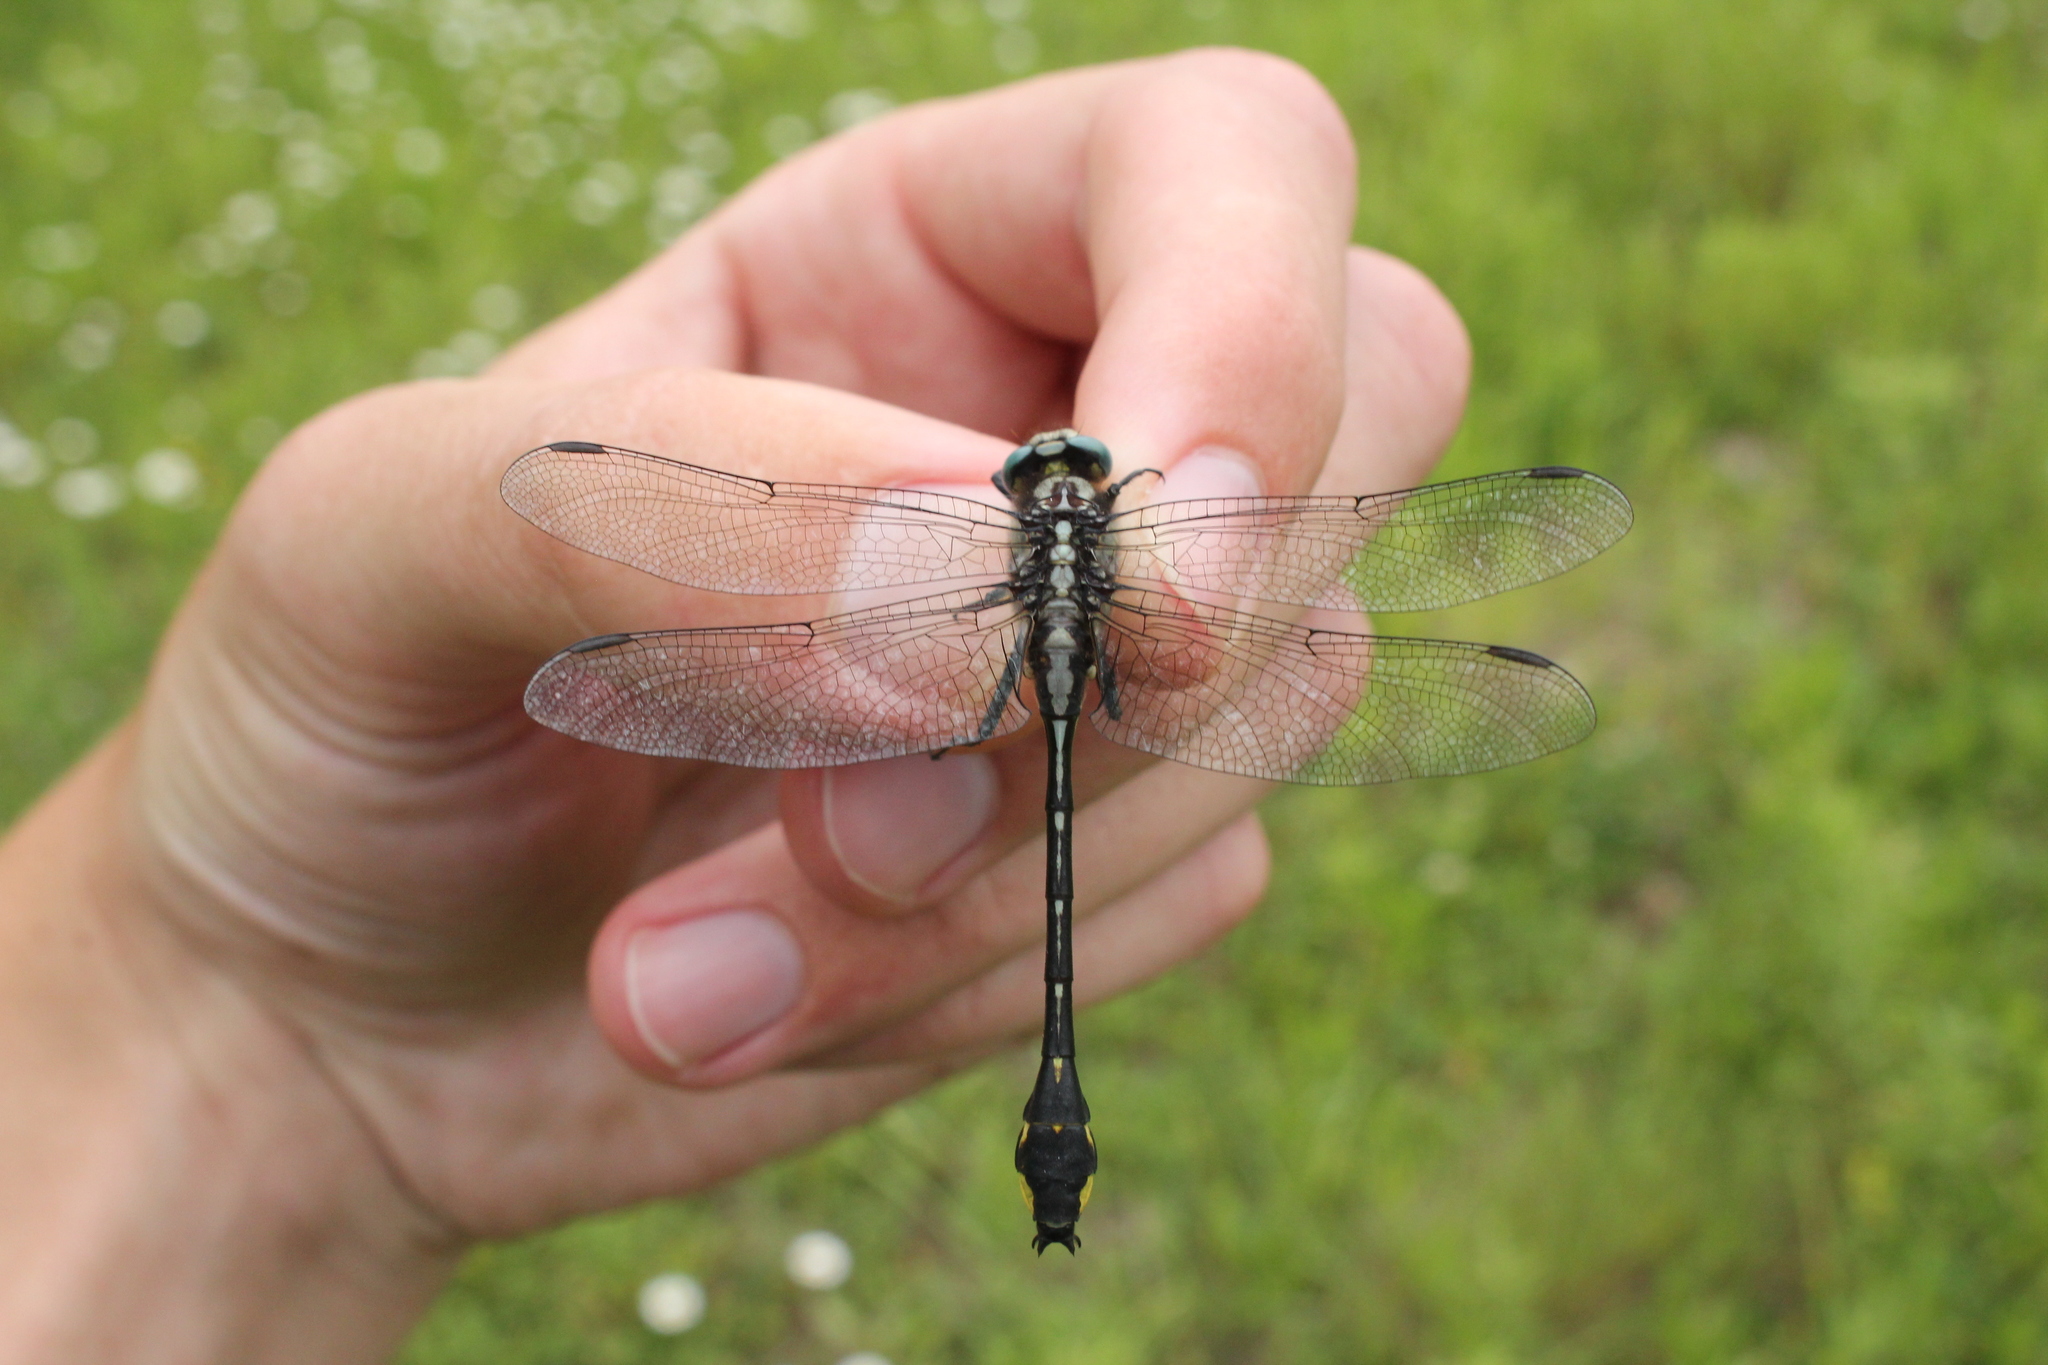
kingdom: Animalia
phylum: Arthropoda
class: Insecta
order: Odonata
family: Gomphidae
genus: Gomphurus
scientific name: Gomphurus fraternus
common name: Midland clubtail
